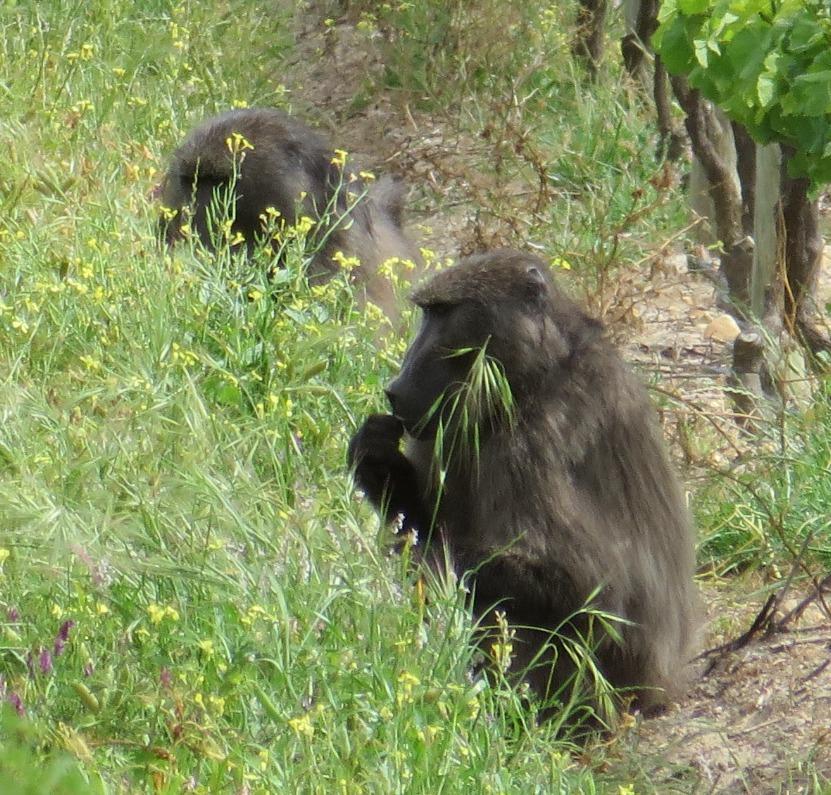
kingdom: Animalia
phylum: Chordata
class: Mammalia
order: Primates
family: Cercopithecidae
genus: Papio
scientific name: Papio ursinus
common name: Chacma baboon
